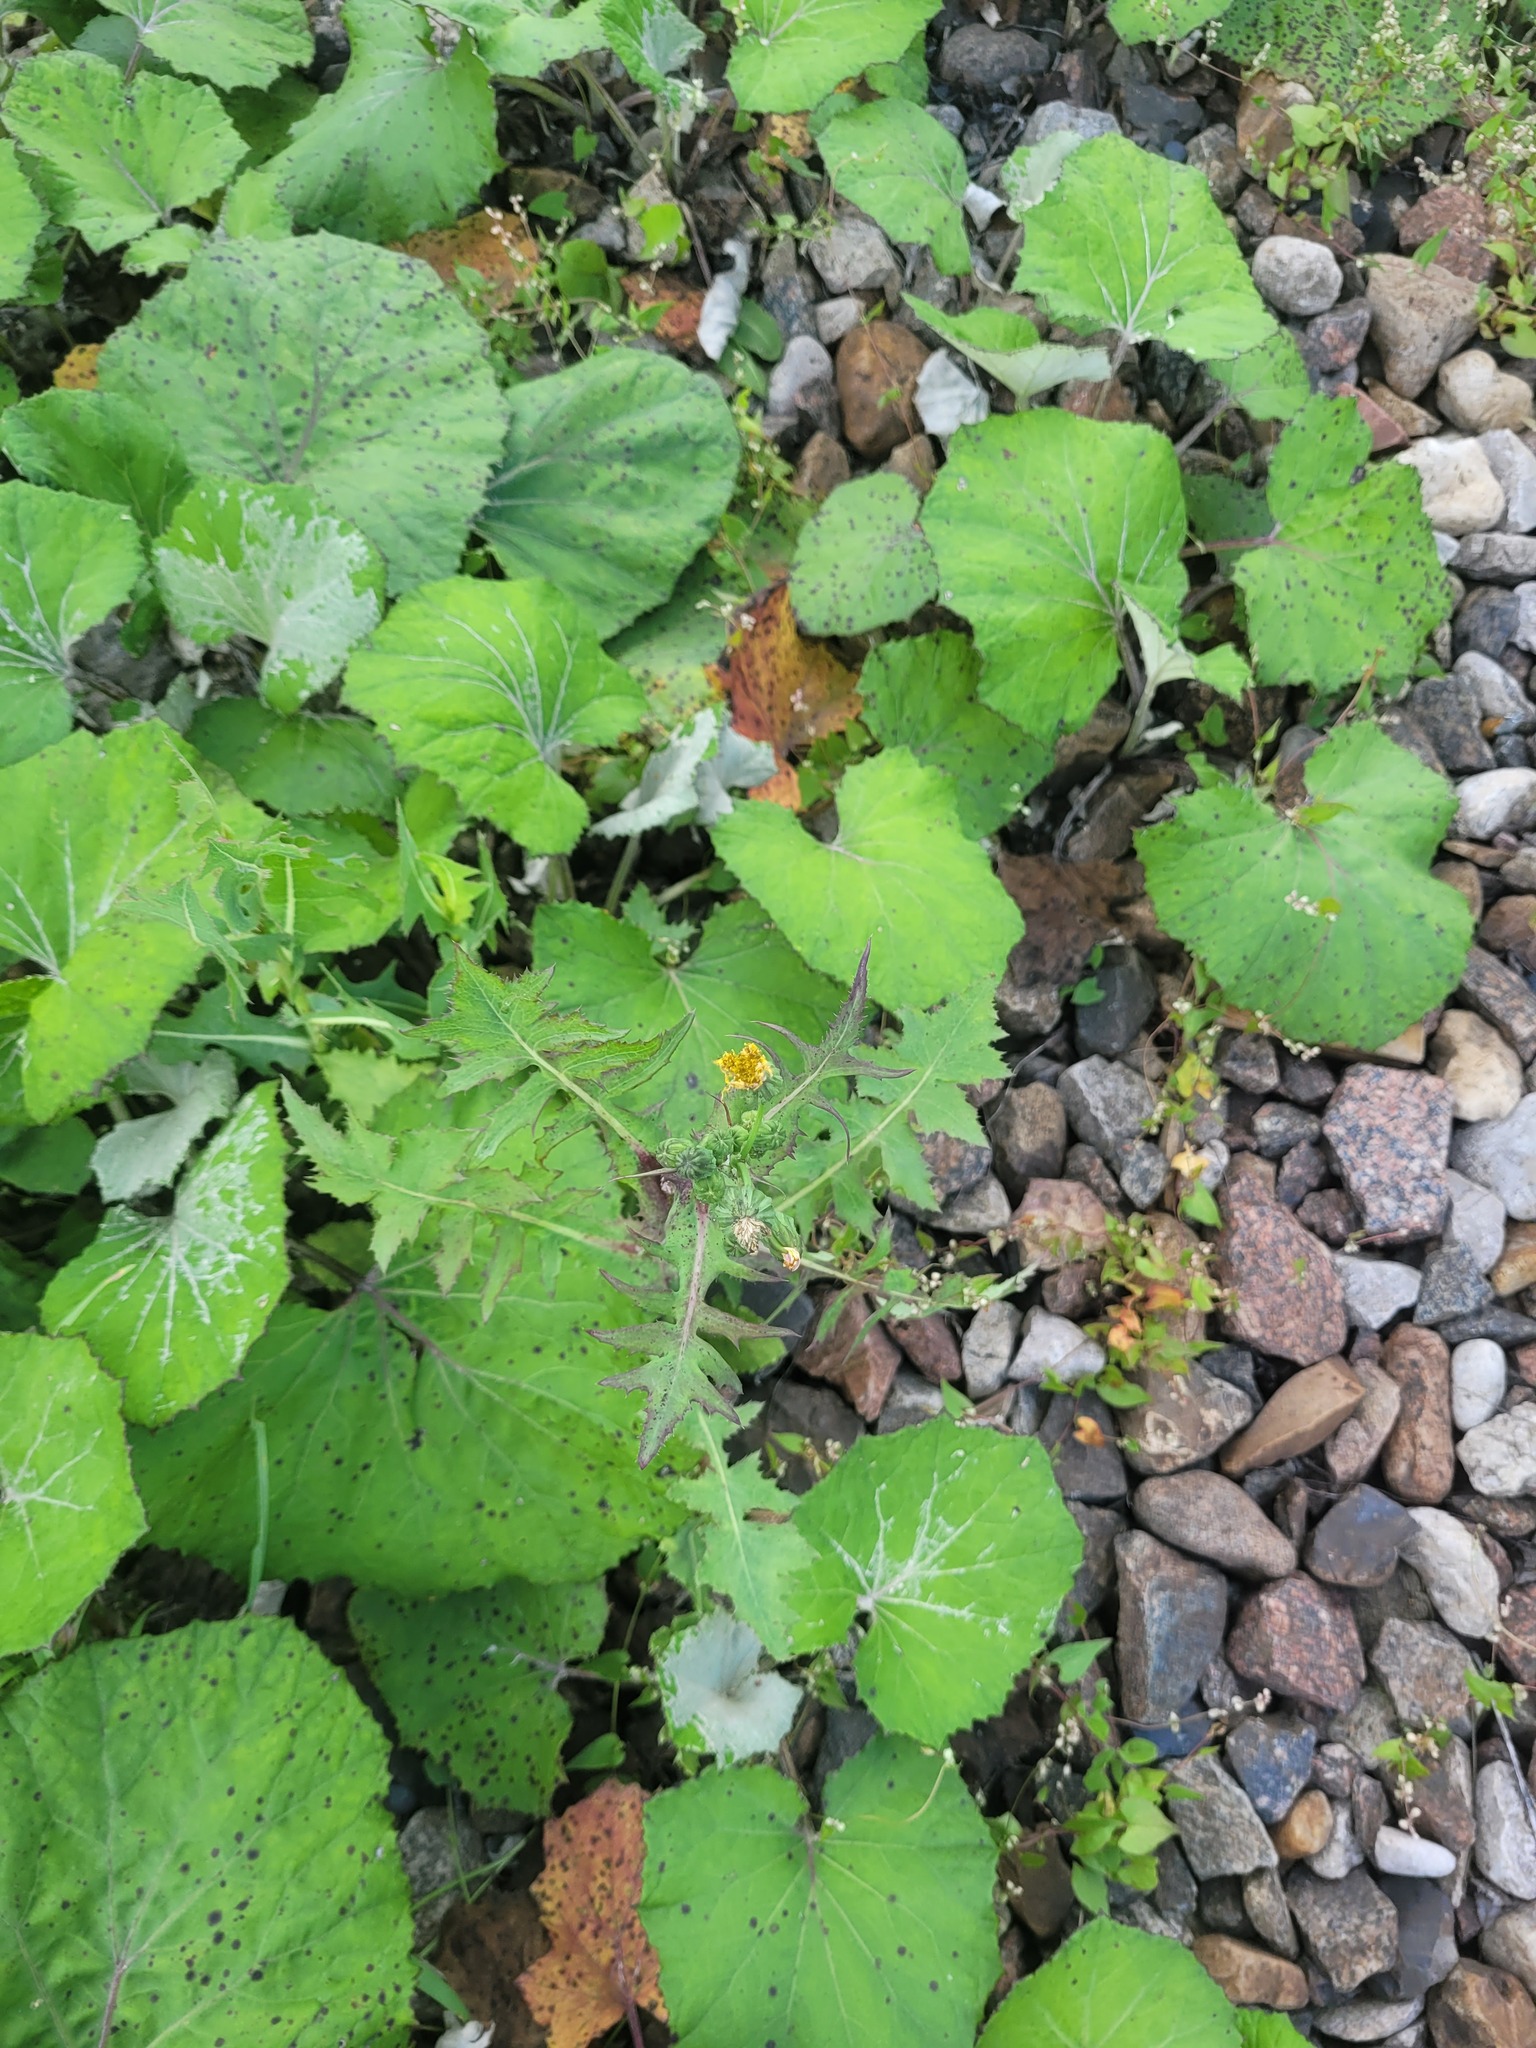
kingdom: Plantae
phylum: Tracheophyta
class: Magnoliopsida
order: Asterales
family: Asteraceae
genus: Sonchus
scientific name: Sonchus oleraceus
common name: Common sowthistle
